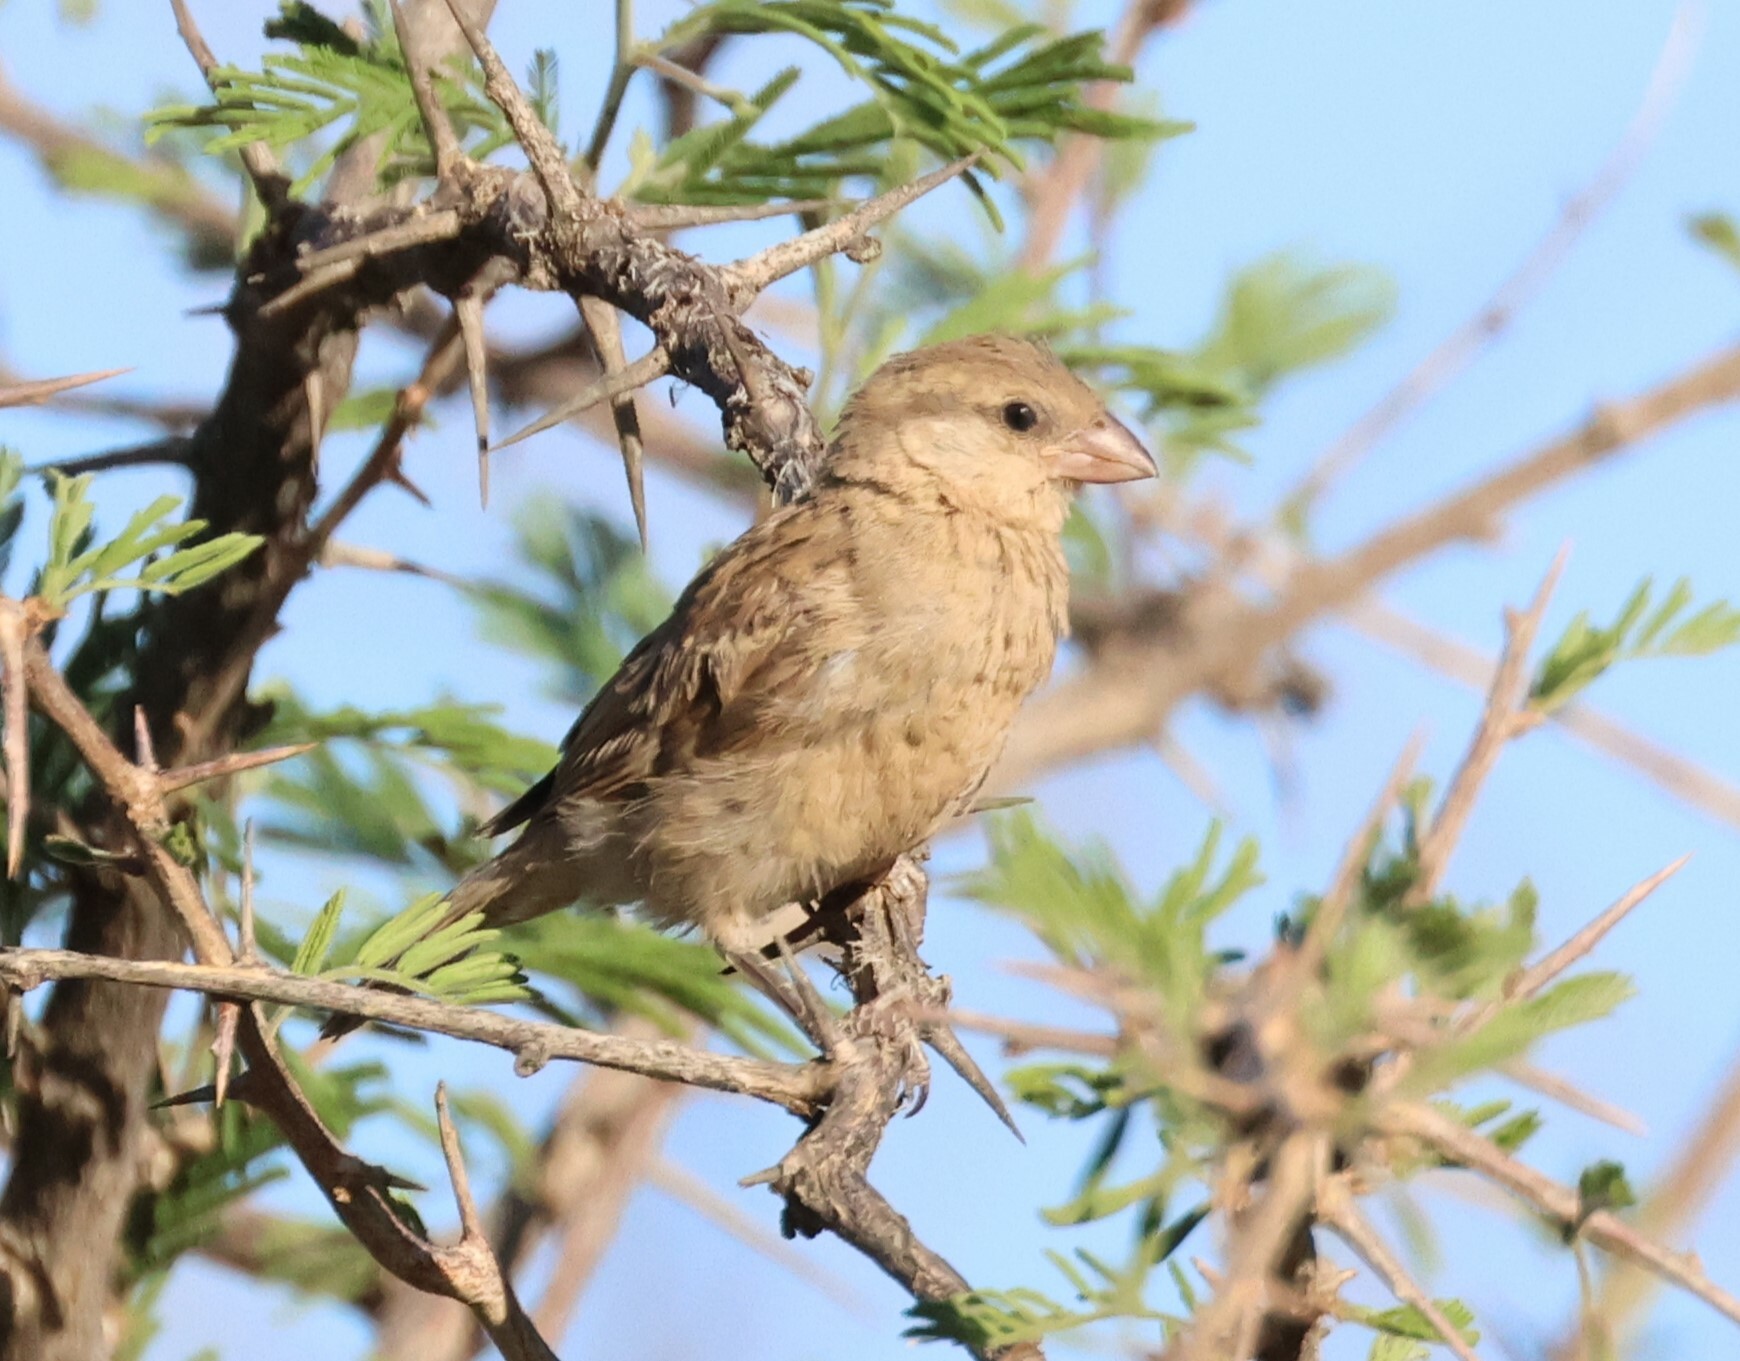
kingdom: Animalia
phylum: Chordata
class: Aves
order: Passeriformes
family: Passeridae
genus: Passer
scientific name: Passer domesticus
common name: House sparrow
